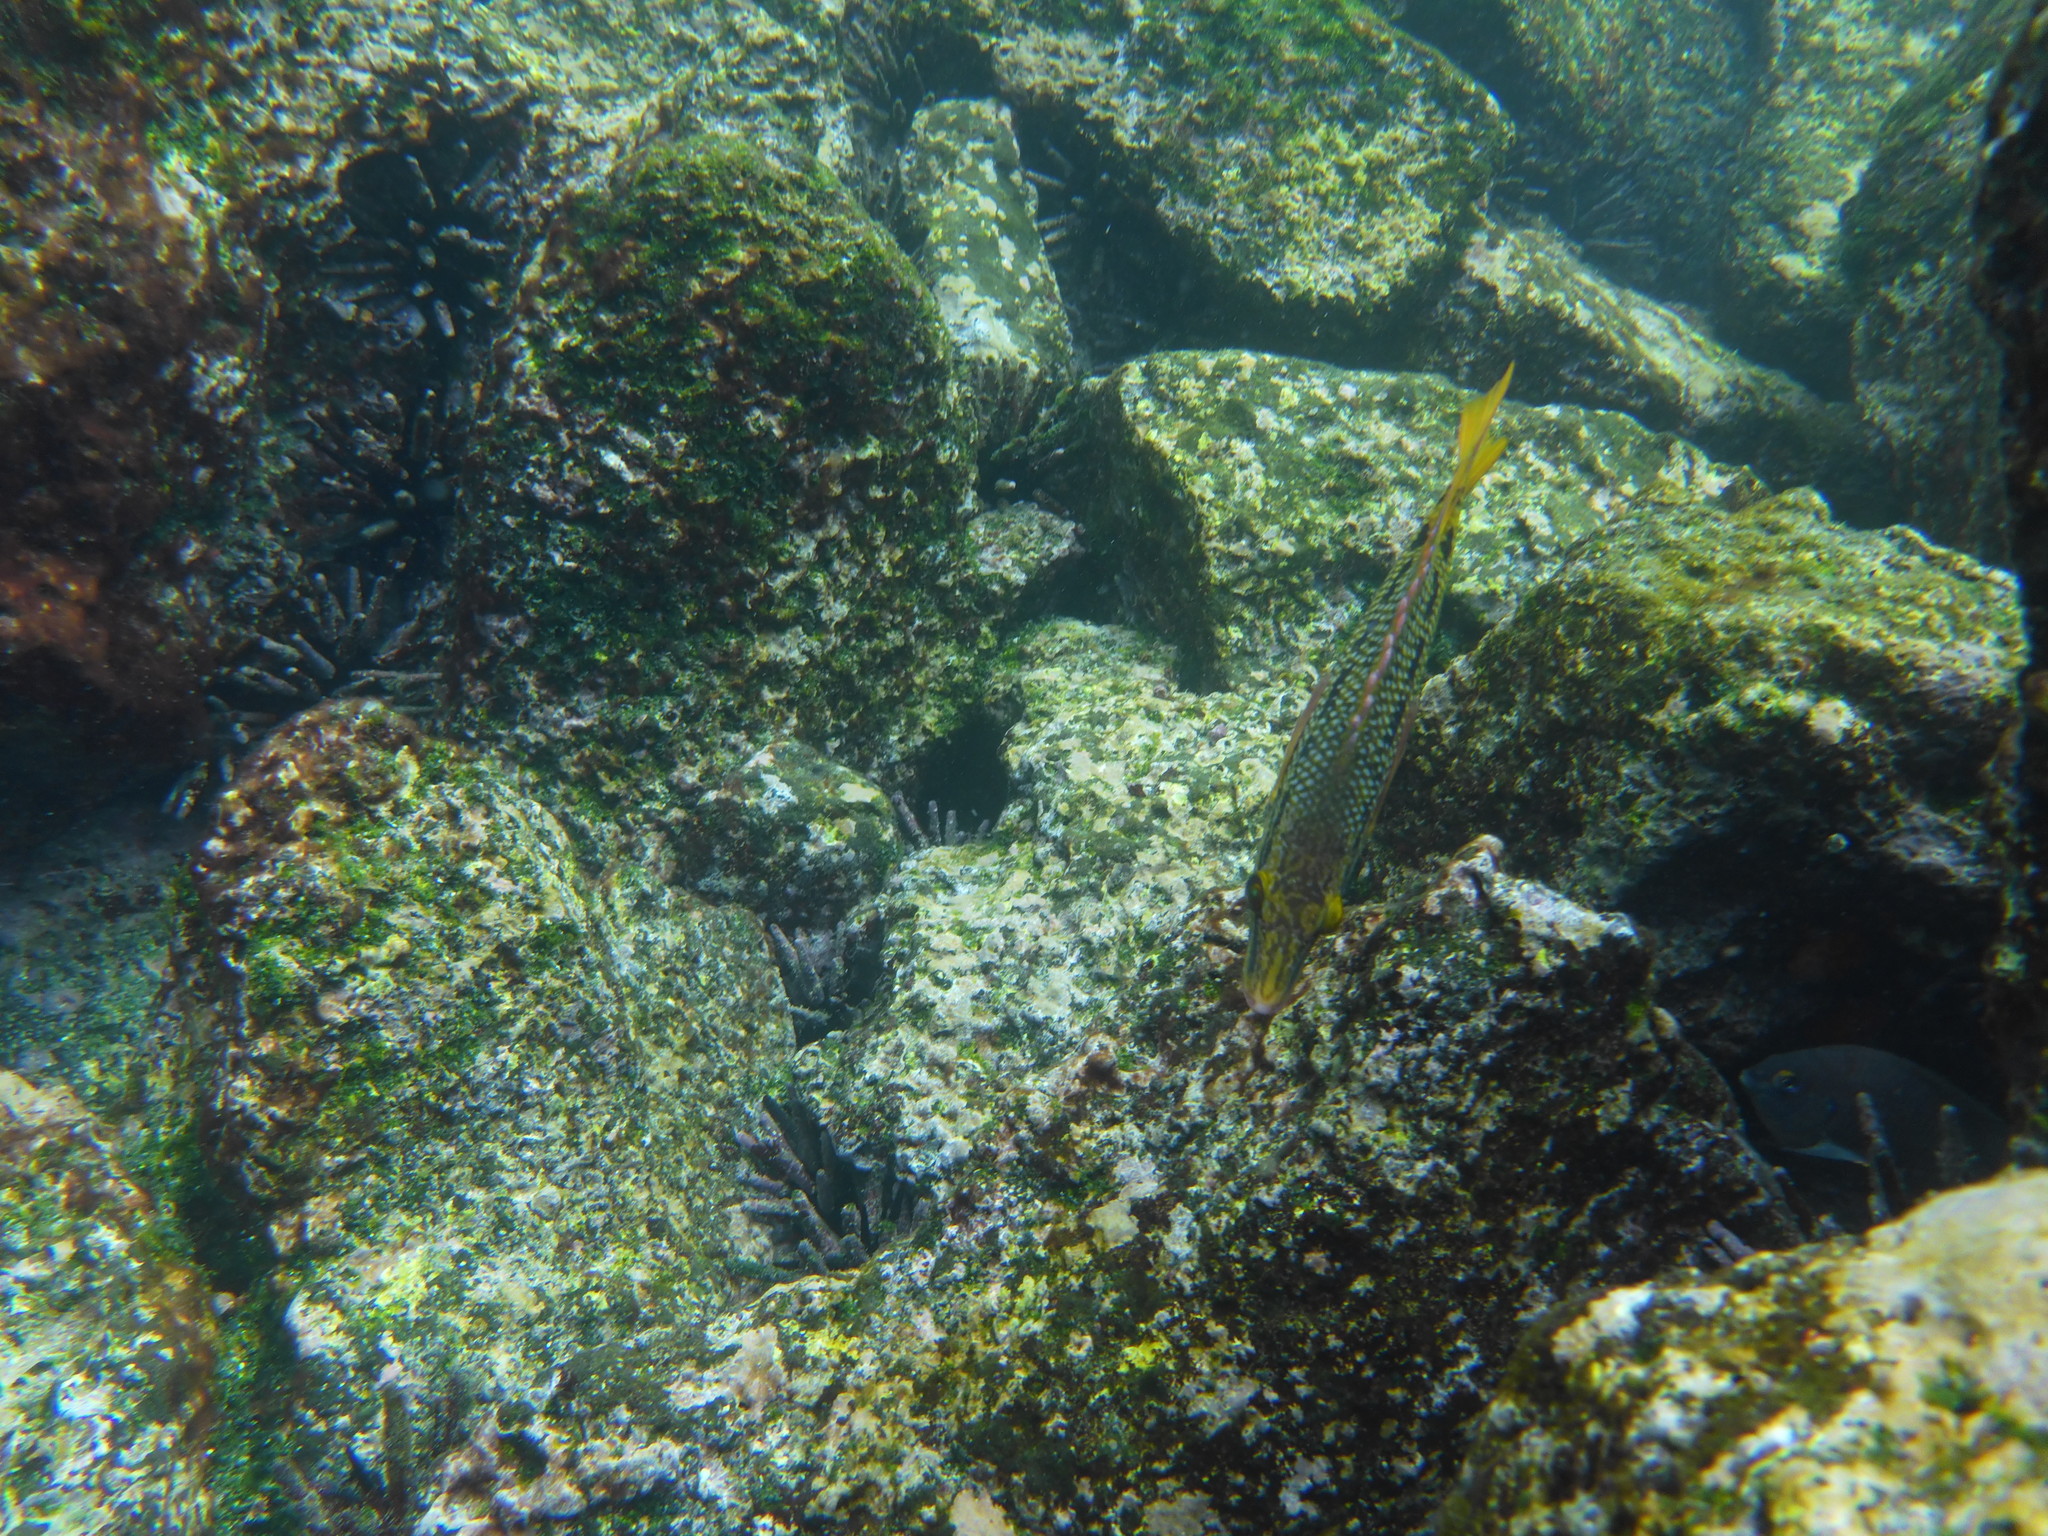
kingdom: Animalia
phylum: Chordata
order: Perciformes
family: Labridae
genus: Bodianus
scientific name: Bodianus diplotaenia
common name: Mexican hogfish
